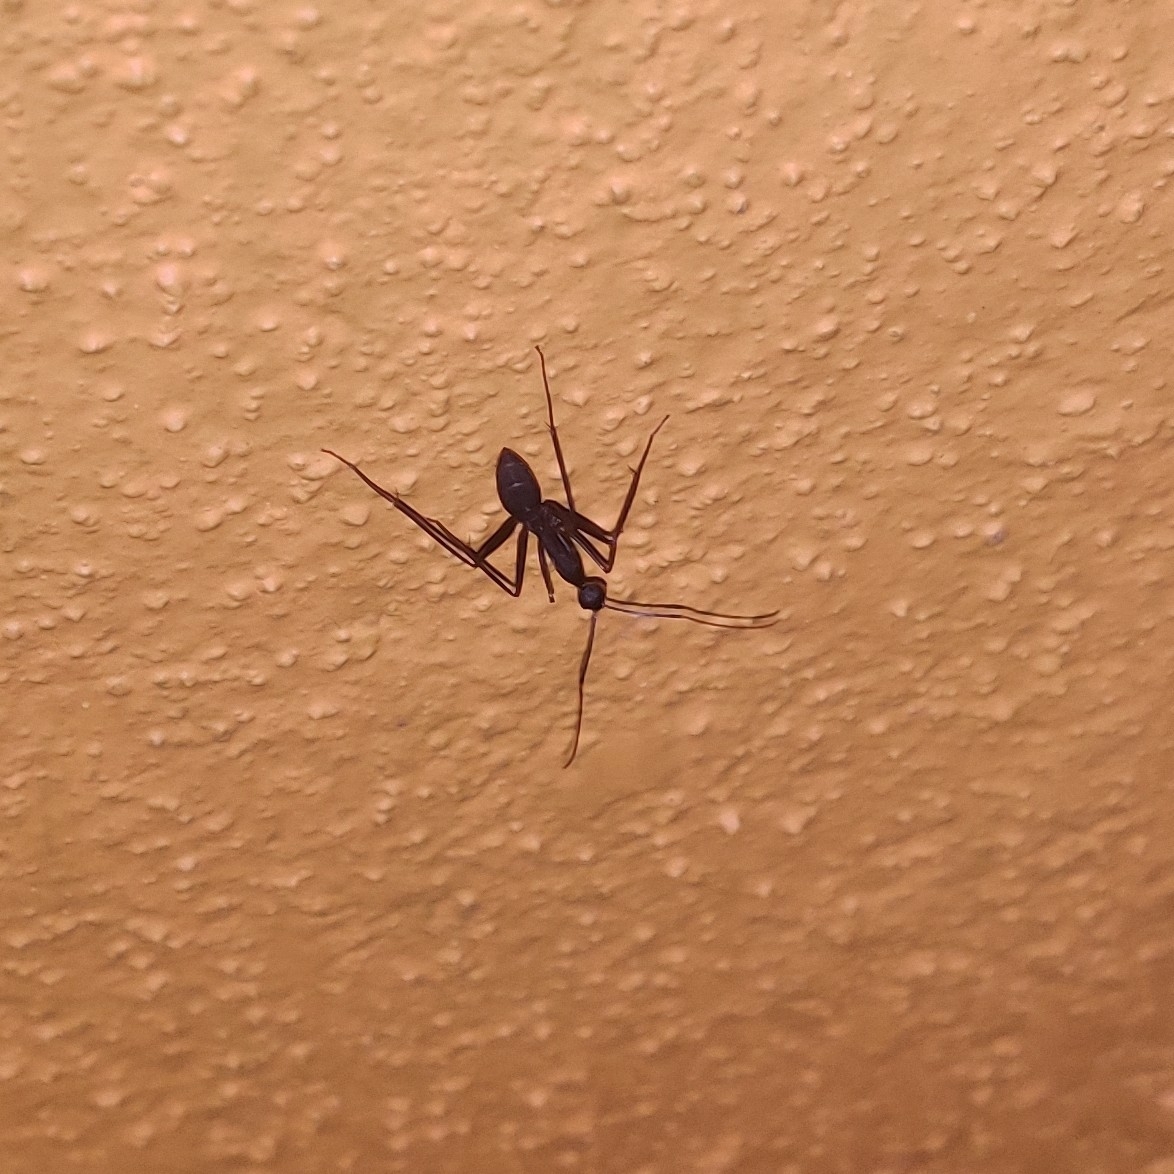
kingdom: Animalia
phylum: Arthropoda
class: Insecta
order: Hymenoptera
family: Formicidae
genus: Camponotus
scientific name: Camponotus angusticollis
